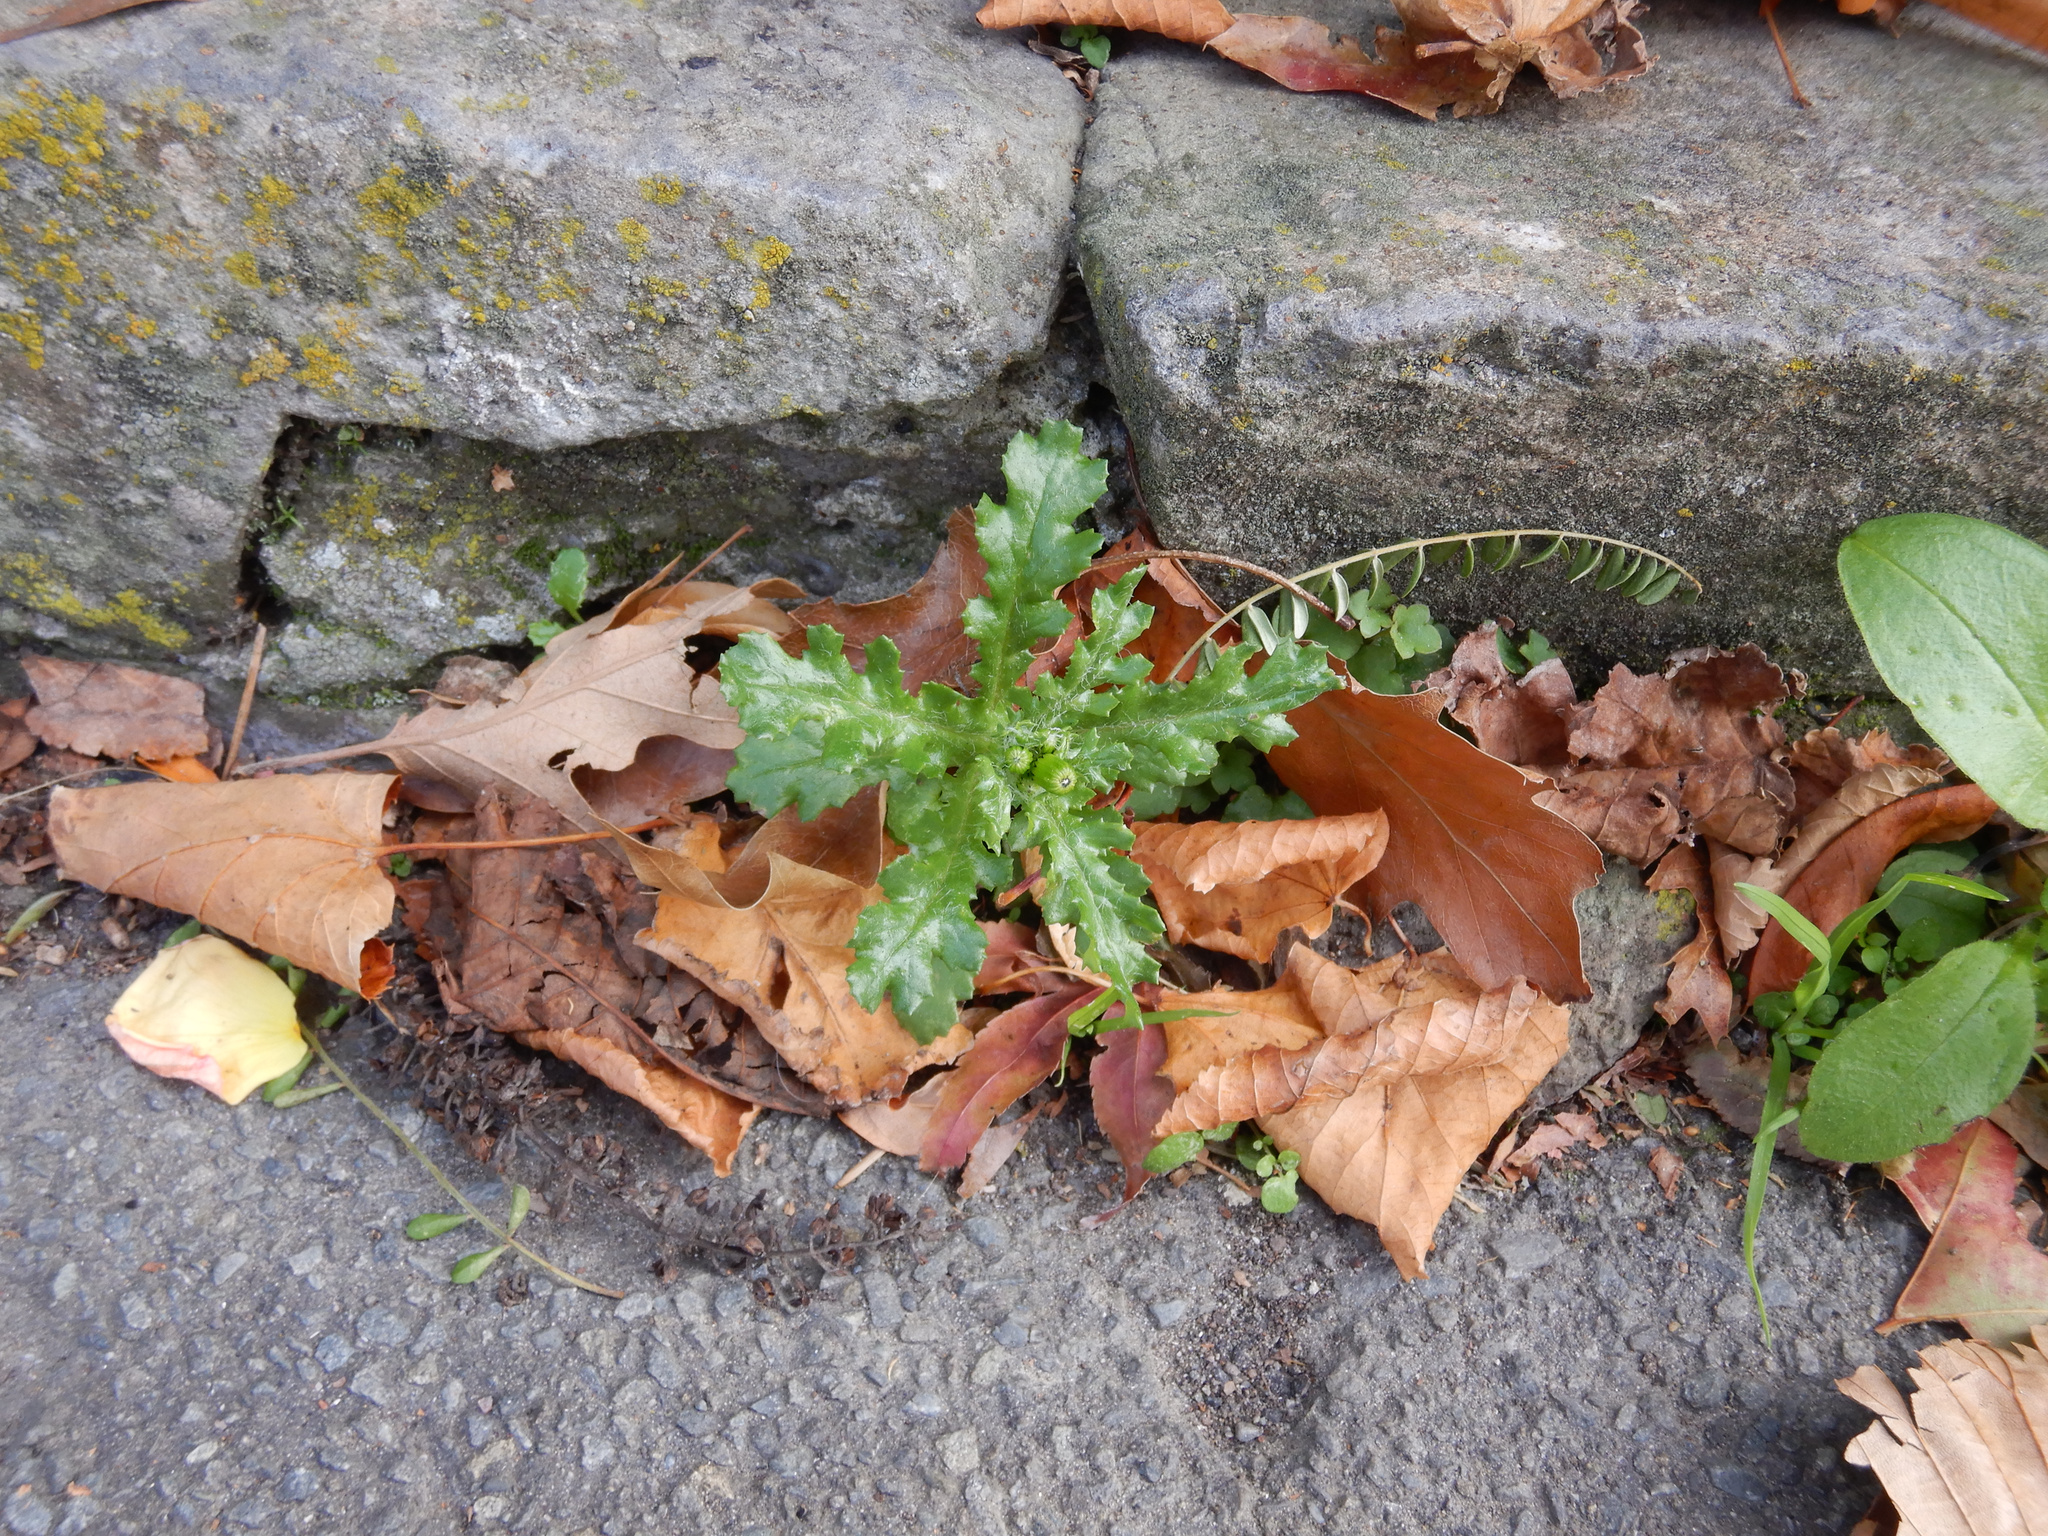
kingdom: Plantae
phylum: Tracheophyta
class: Magnoliopsida
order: Asterales
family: Asteraceae
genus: Senecio
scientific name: Senecio vulgaris
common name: Old-man-in-the-spring
